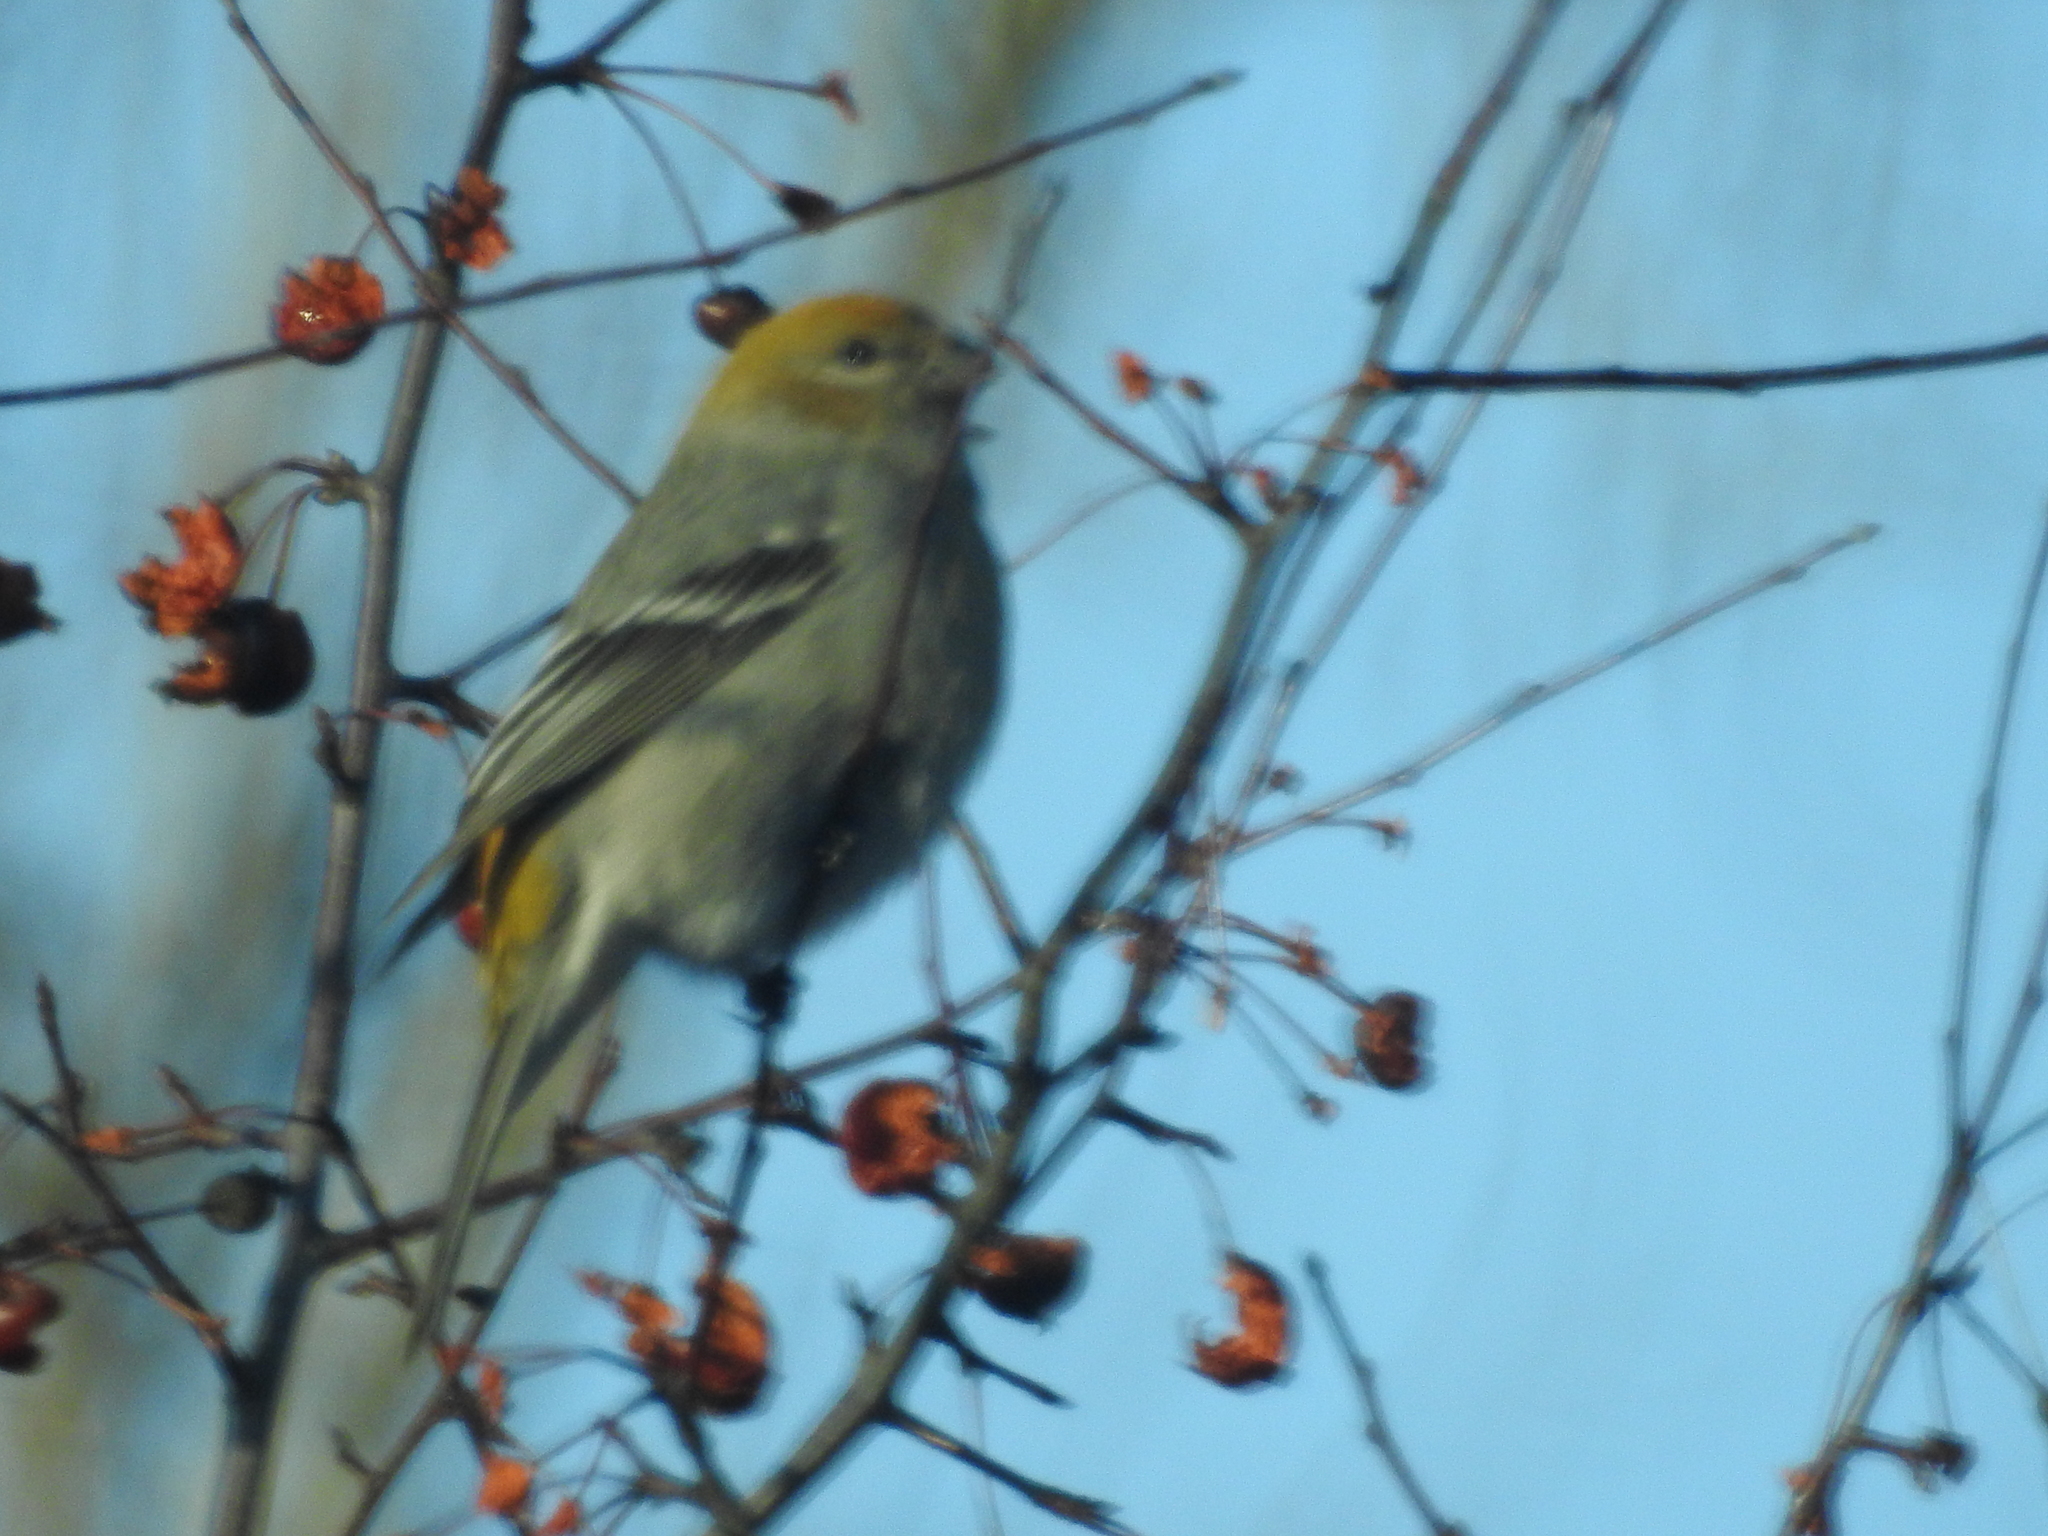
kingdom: Animalia
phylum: Chordata
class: Aves
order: Passeriformes
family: Fringillidae
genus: Pinicola
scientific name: Pinicola enucleator
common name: Pine grosbeak
